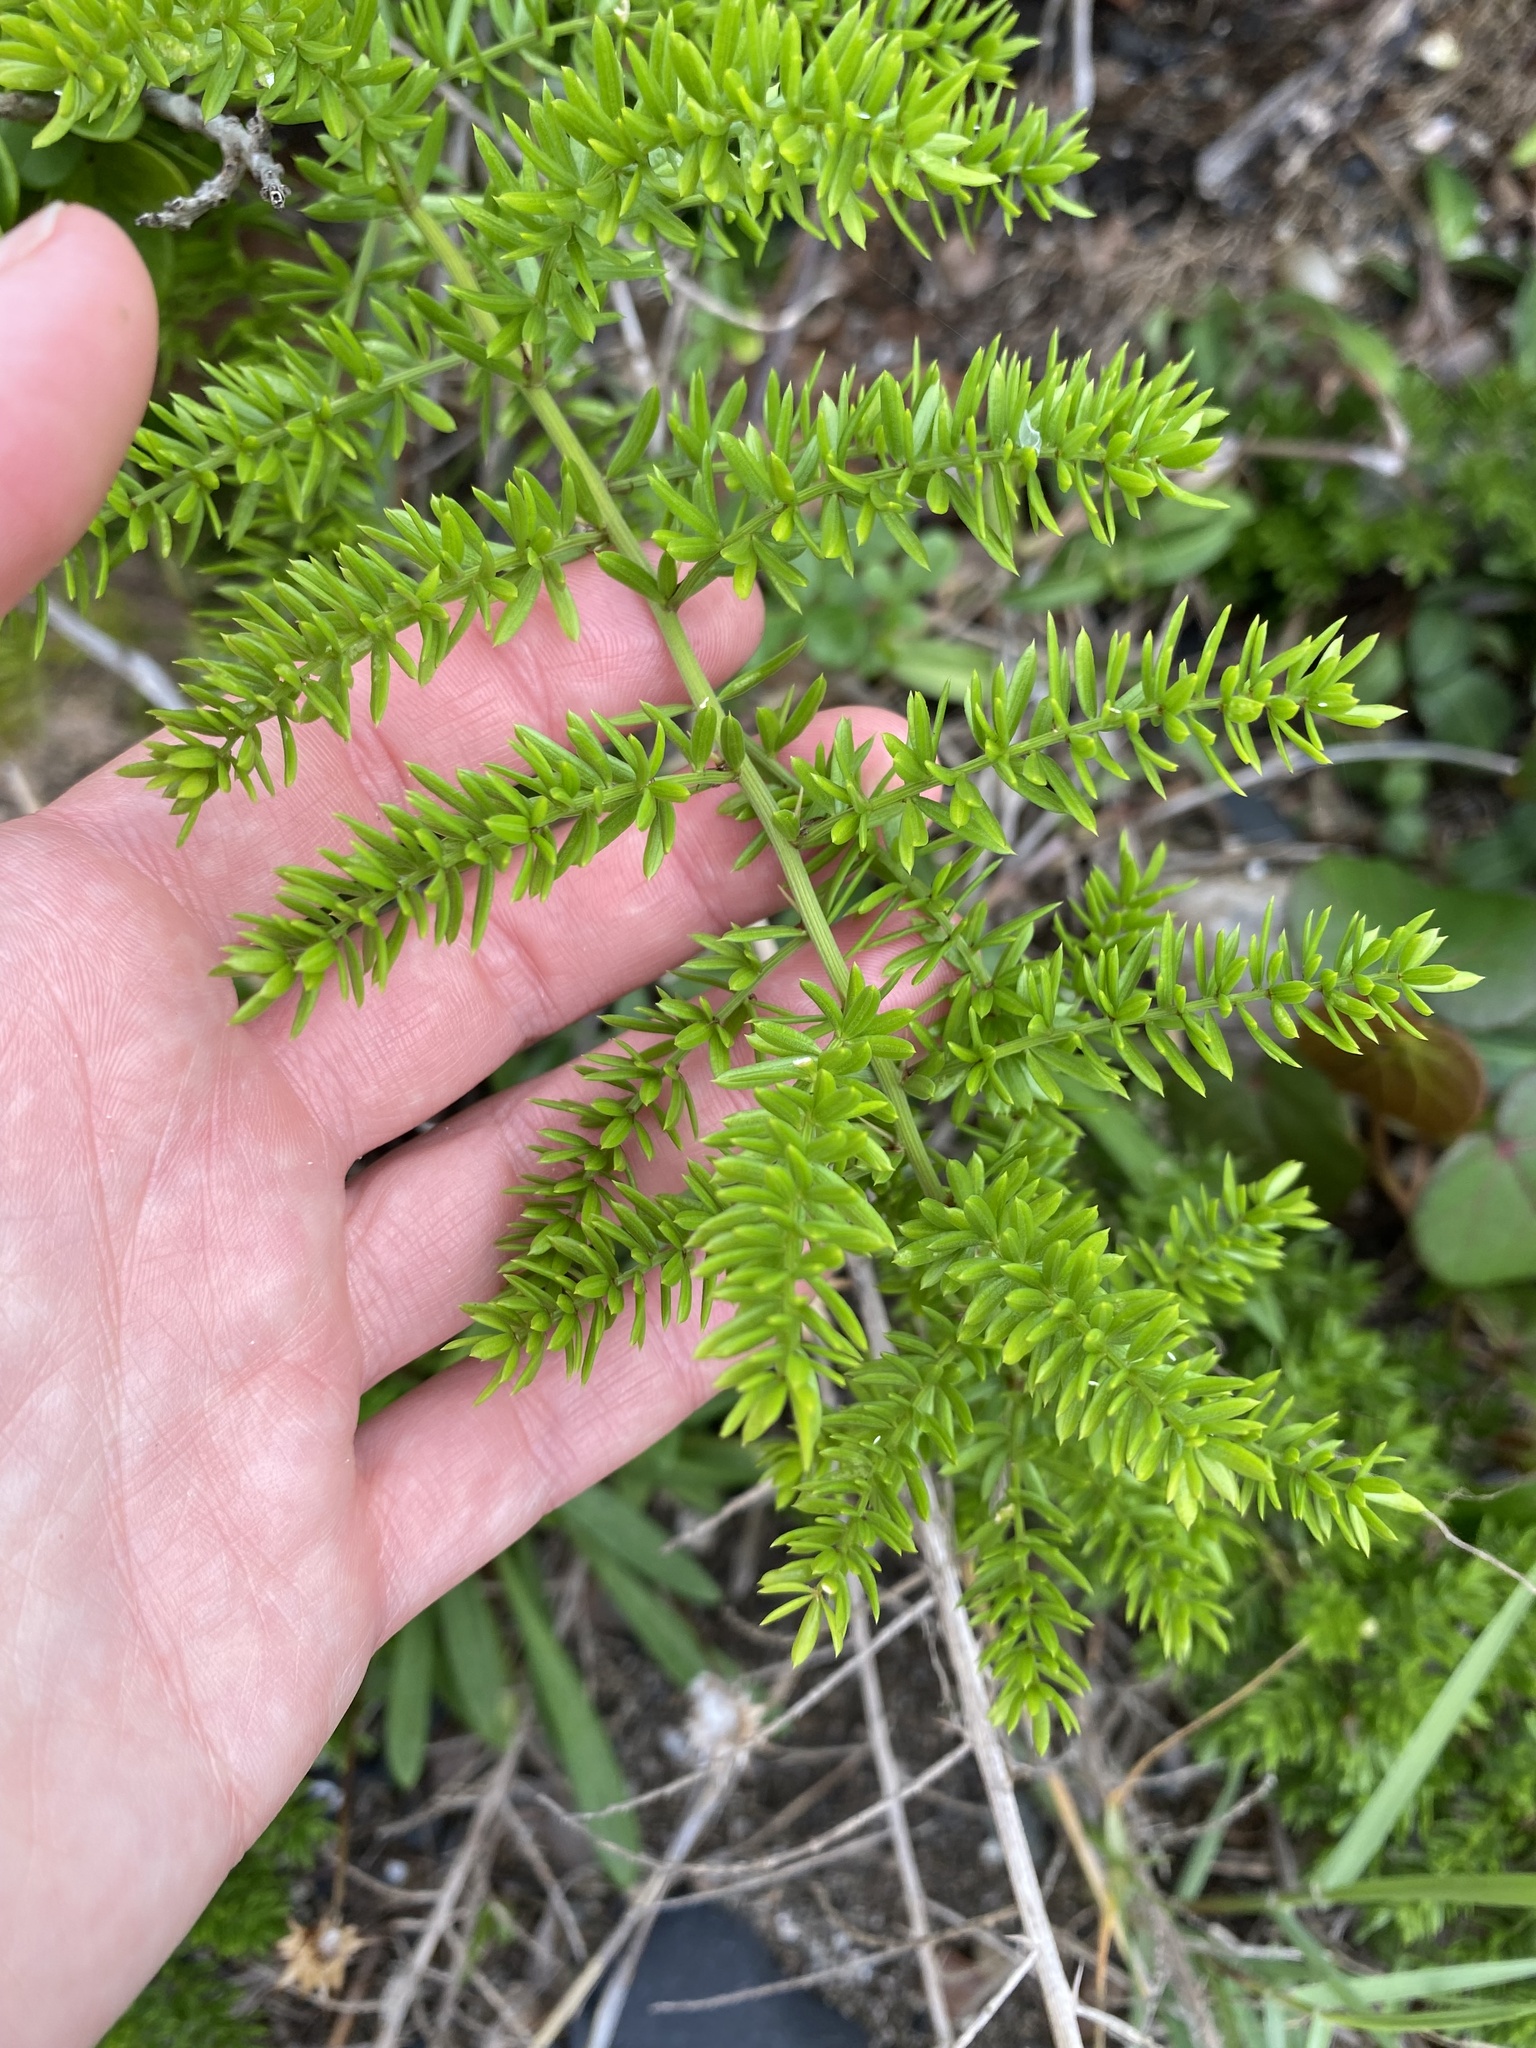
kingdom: Plantae
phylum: Tracheophyta
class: Liliopsida
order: Asparagales
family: Asparagaceae
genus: Asparagus
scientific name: Asparagus densiflorus
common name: Asparagus fern
